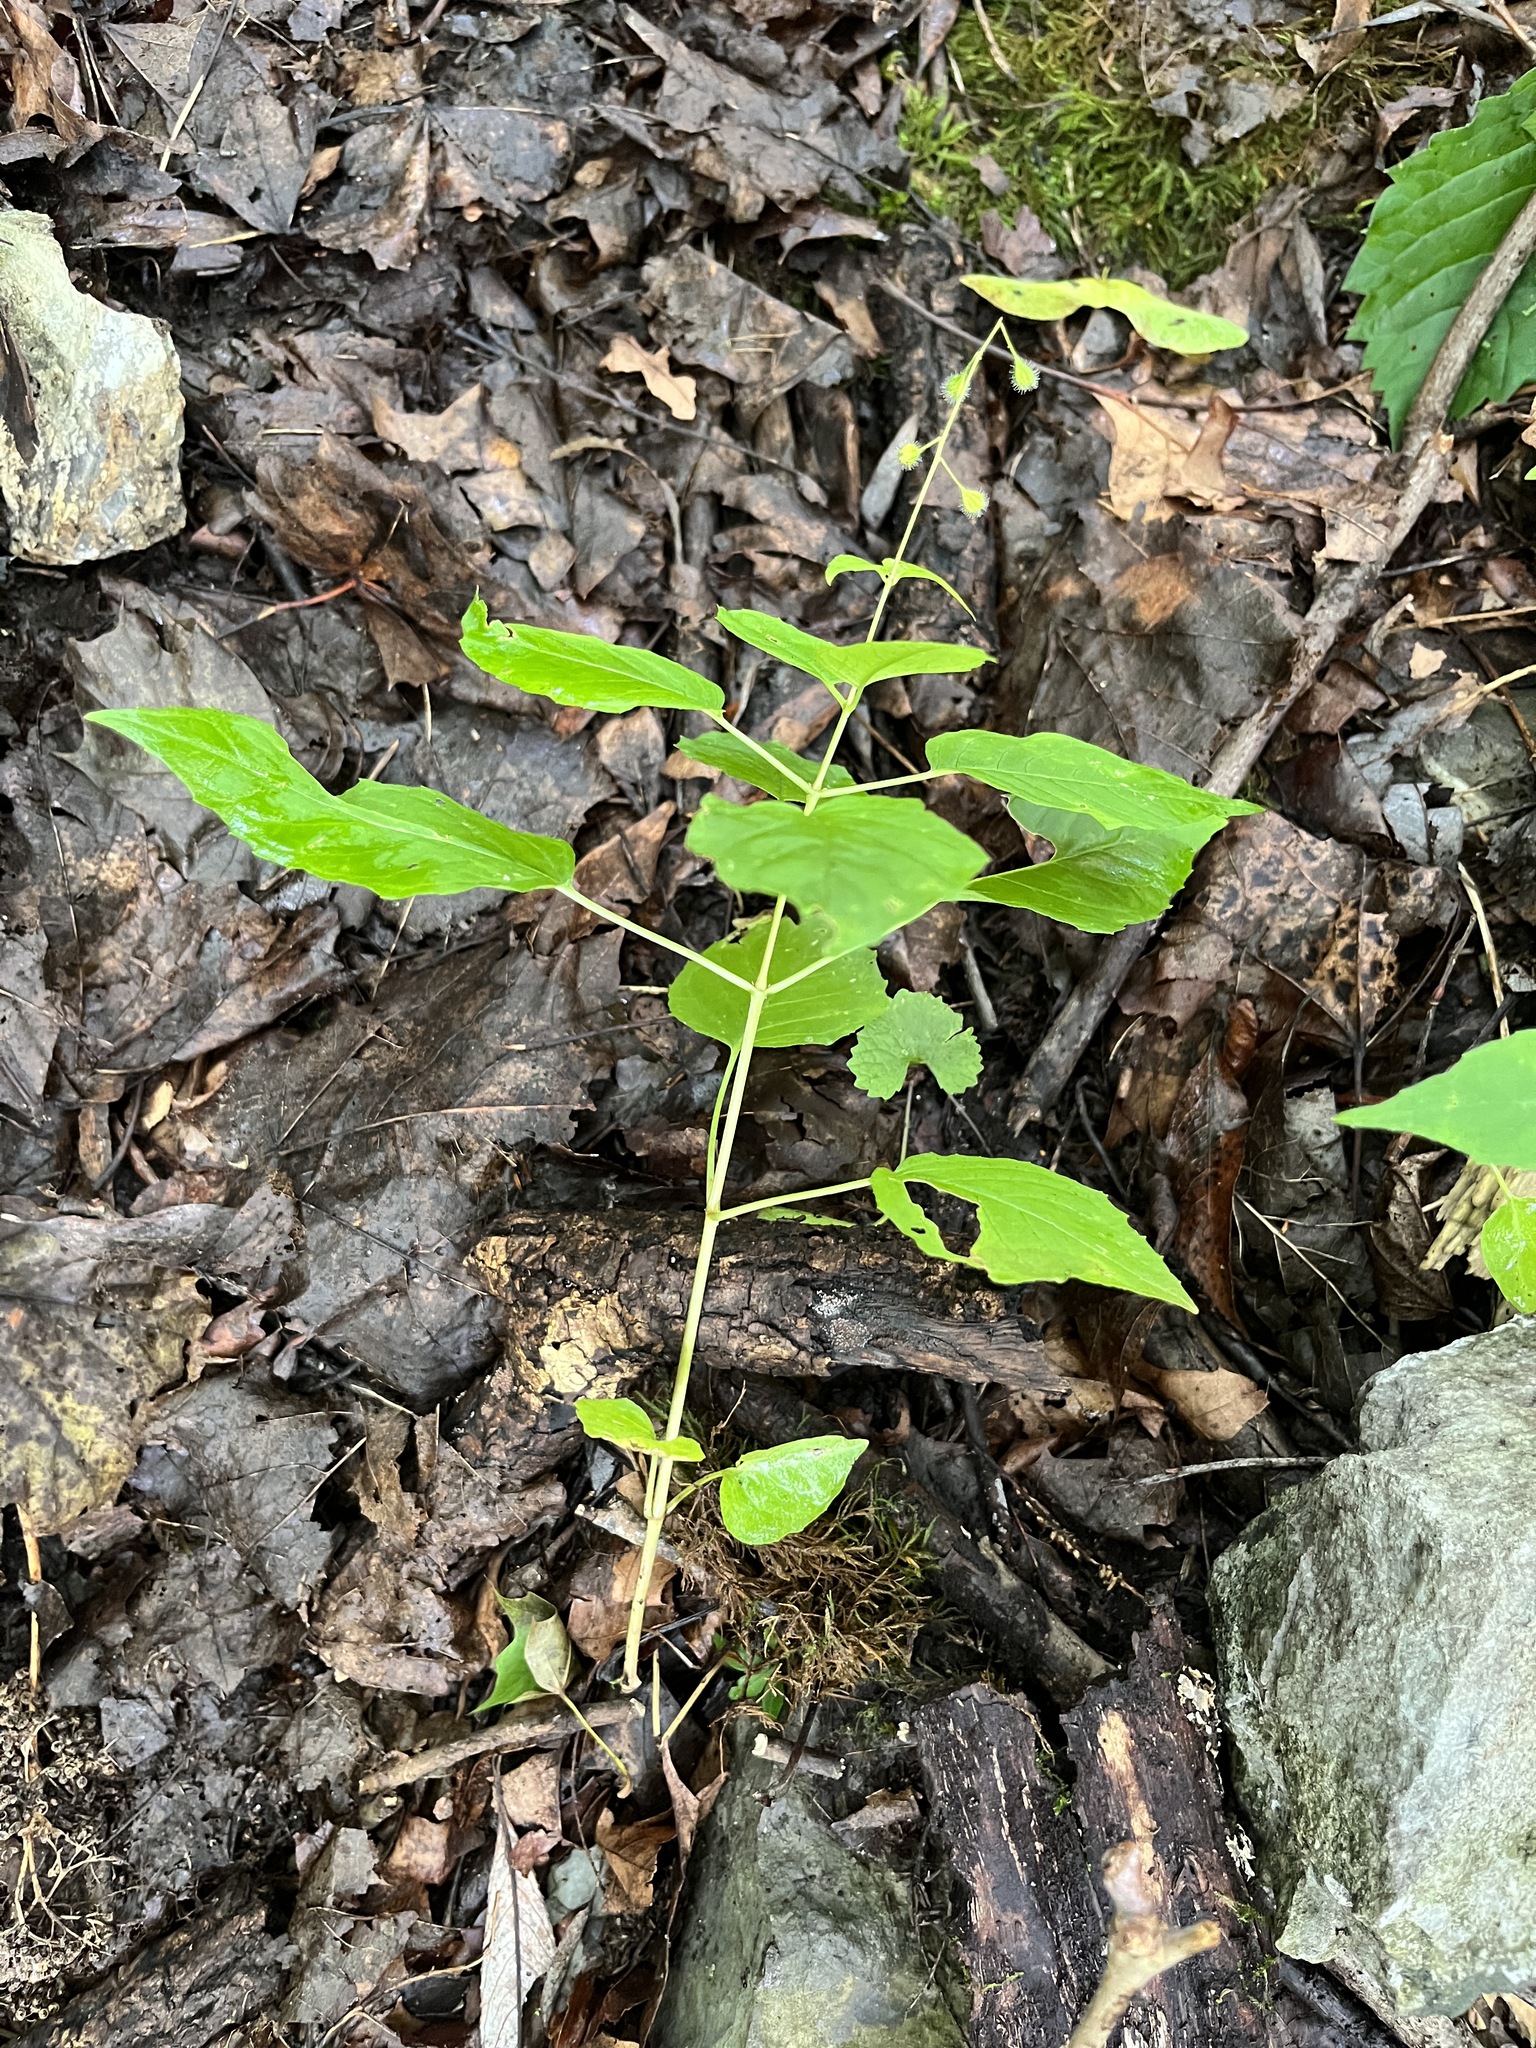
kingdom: Plantae
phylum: Tracheophyta
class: Magnoliopsida
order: Myrtales
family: Onagraceae
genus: Circaea
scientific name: Circaea canadensis
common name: Broad-leaved enchanter's nightshade
